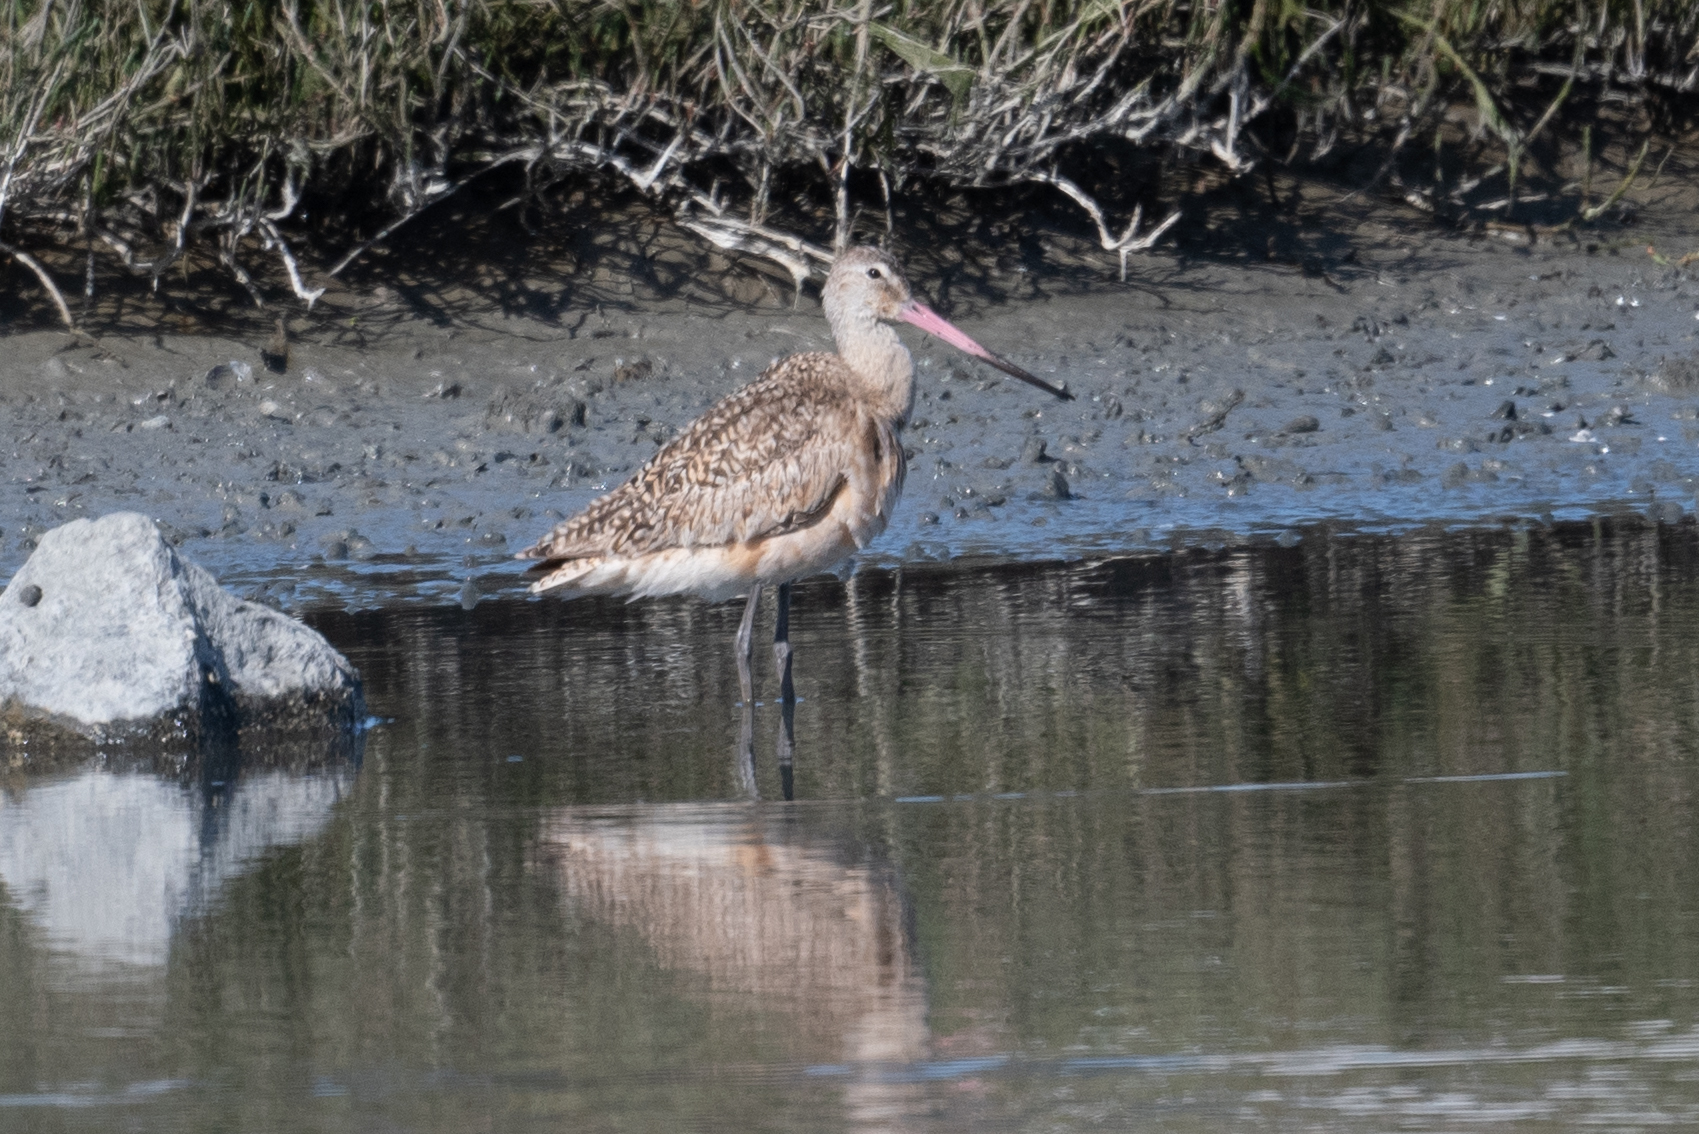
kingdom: Animalia
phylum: Chordata
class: Aves
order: Charadriiformes
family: Scolopacidae
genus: Limosa
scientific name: Limosa fedoa
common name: Marbled godwit
